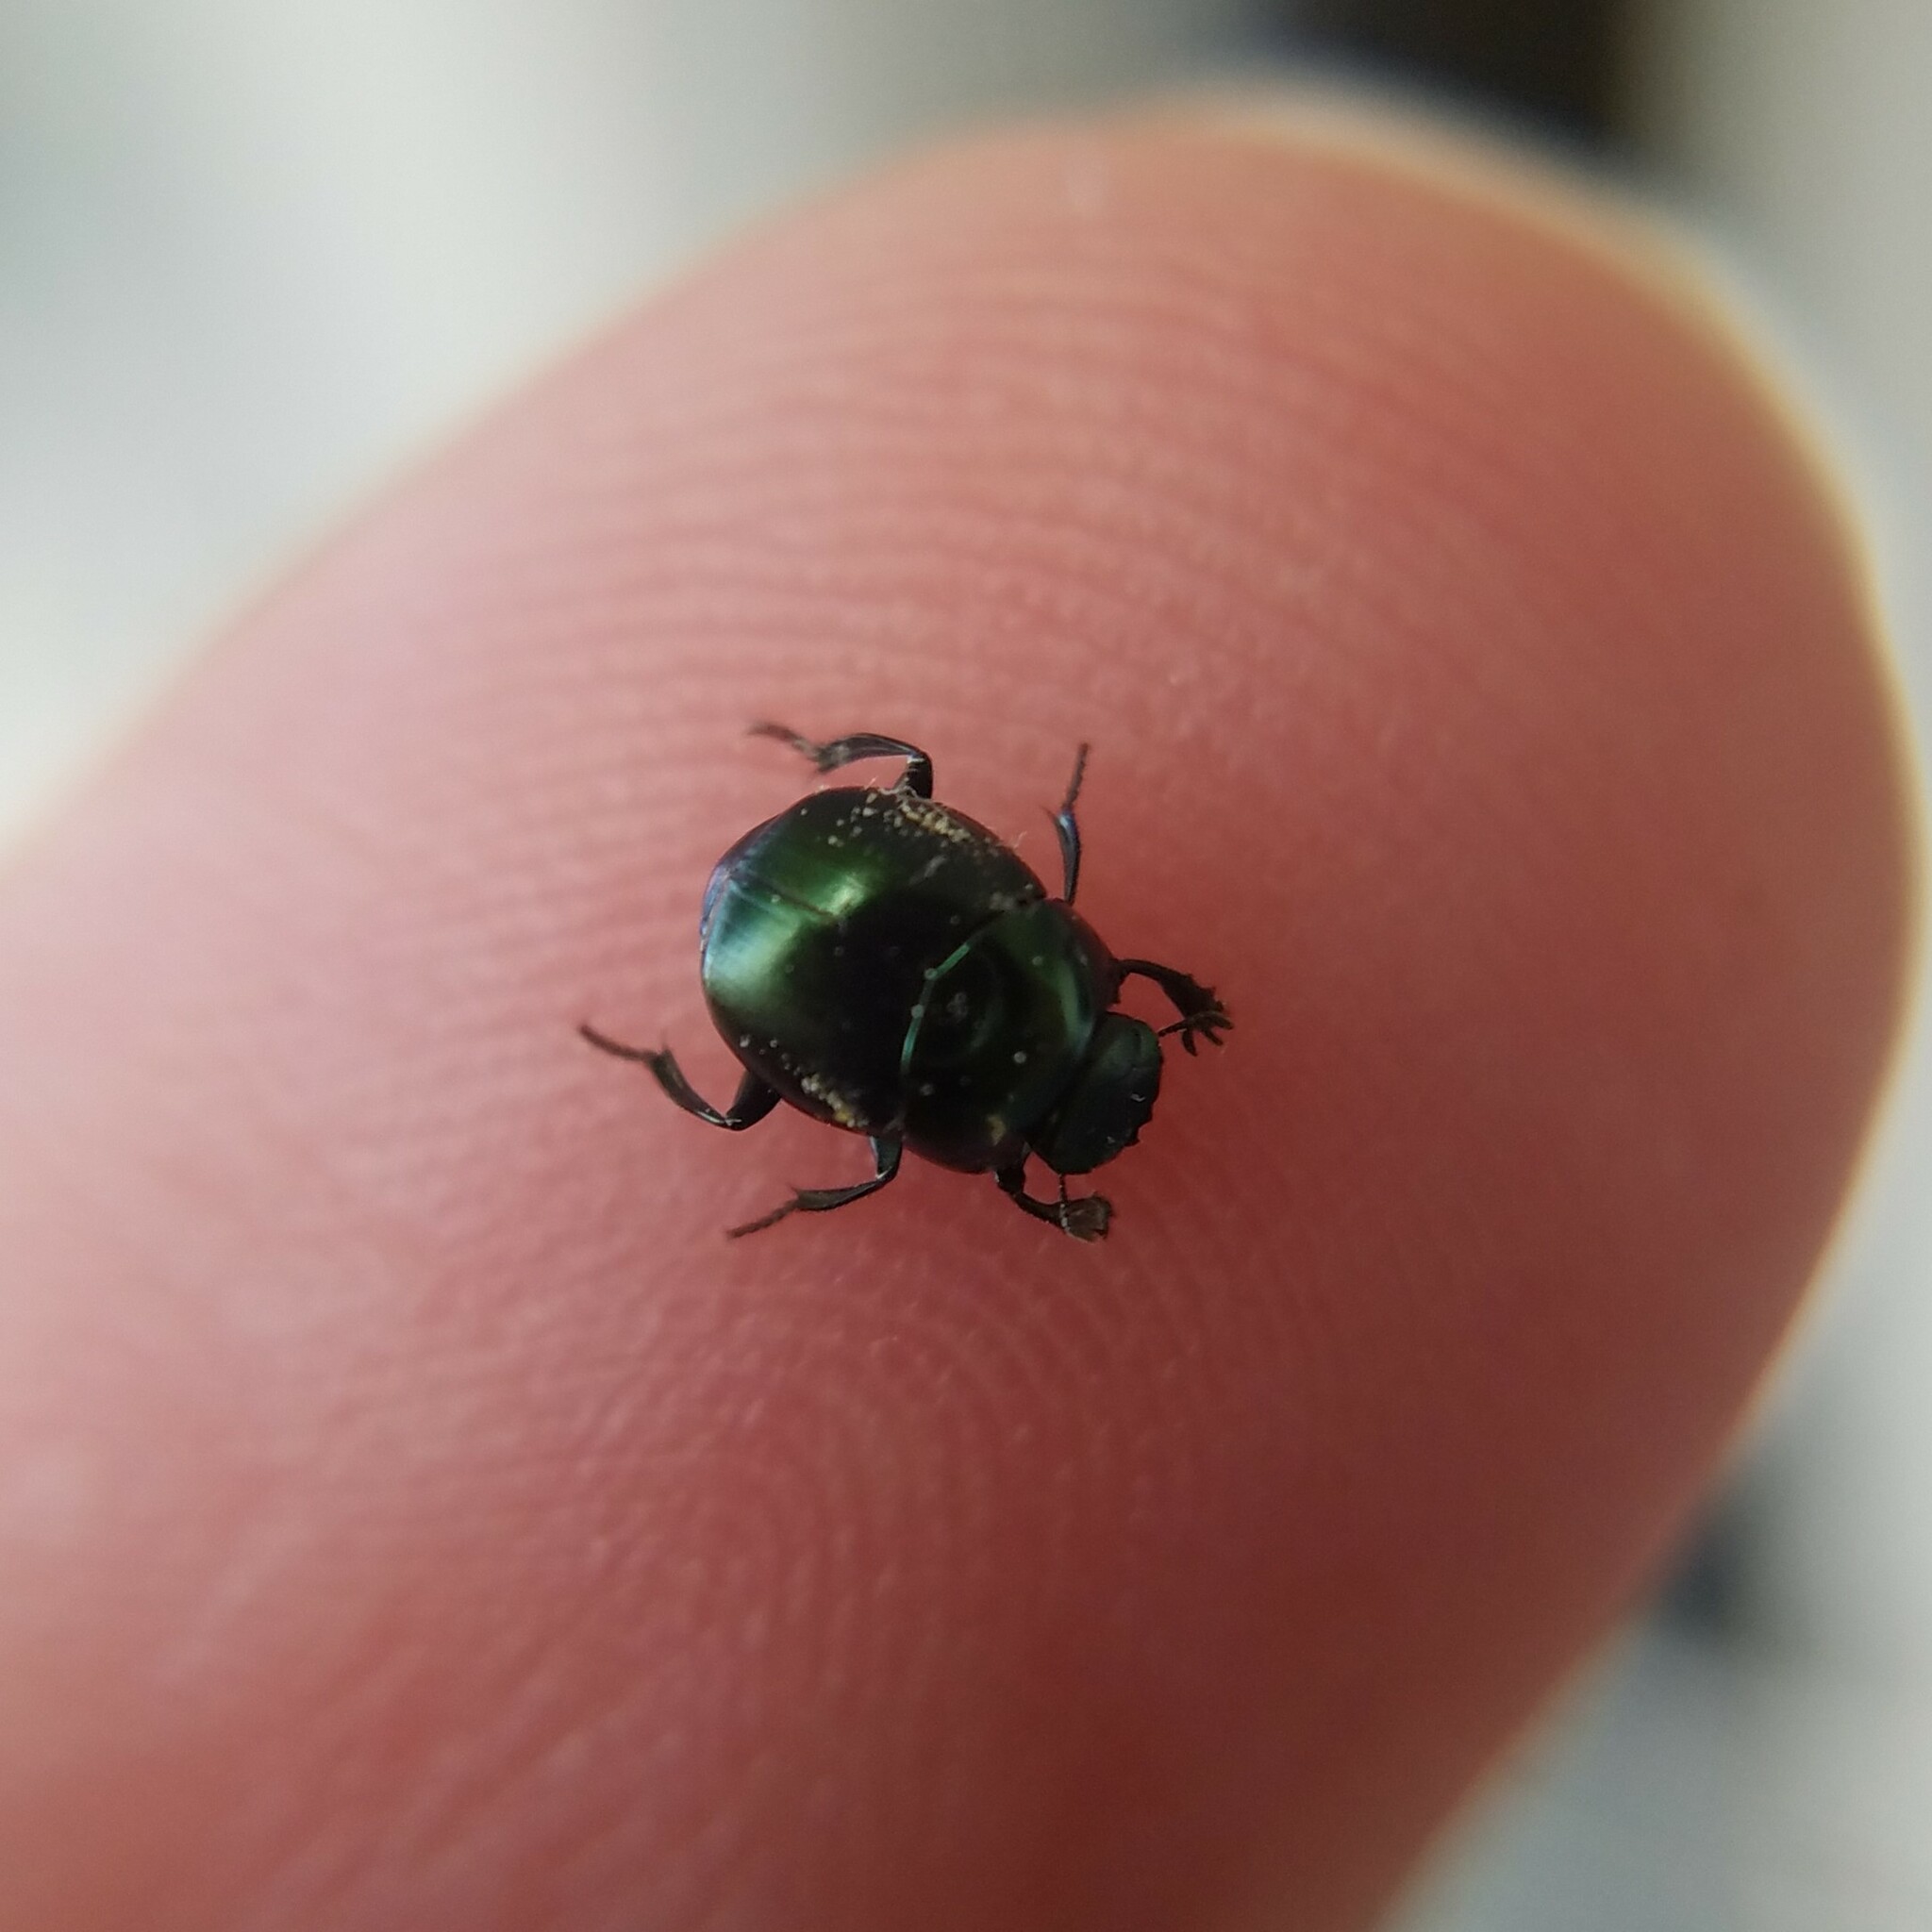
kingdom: Animalia
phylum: Arthropoda
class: Insecta
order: Coleoptera
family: Scarabaeidae
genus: Canthon
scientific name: Canthon viridis
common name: Tumblebug
